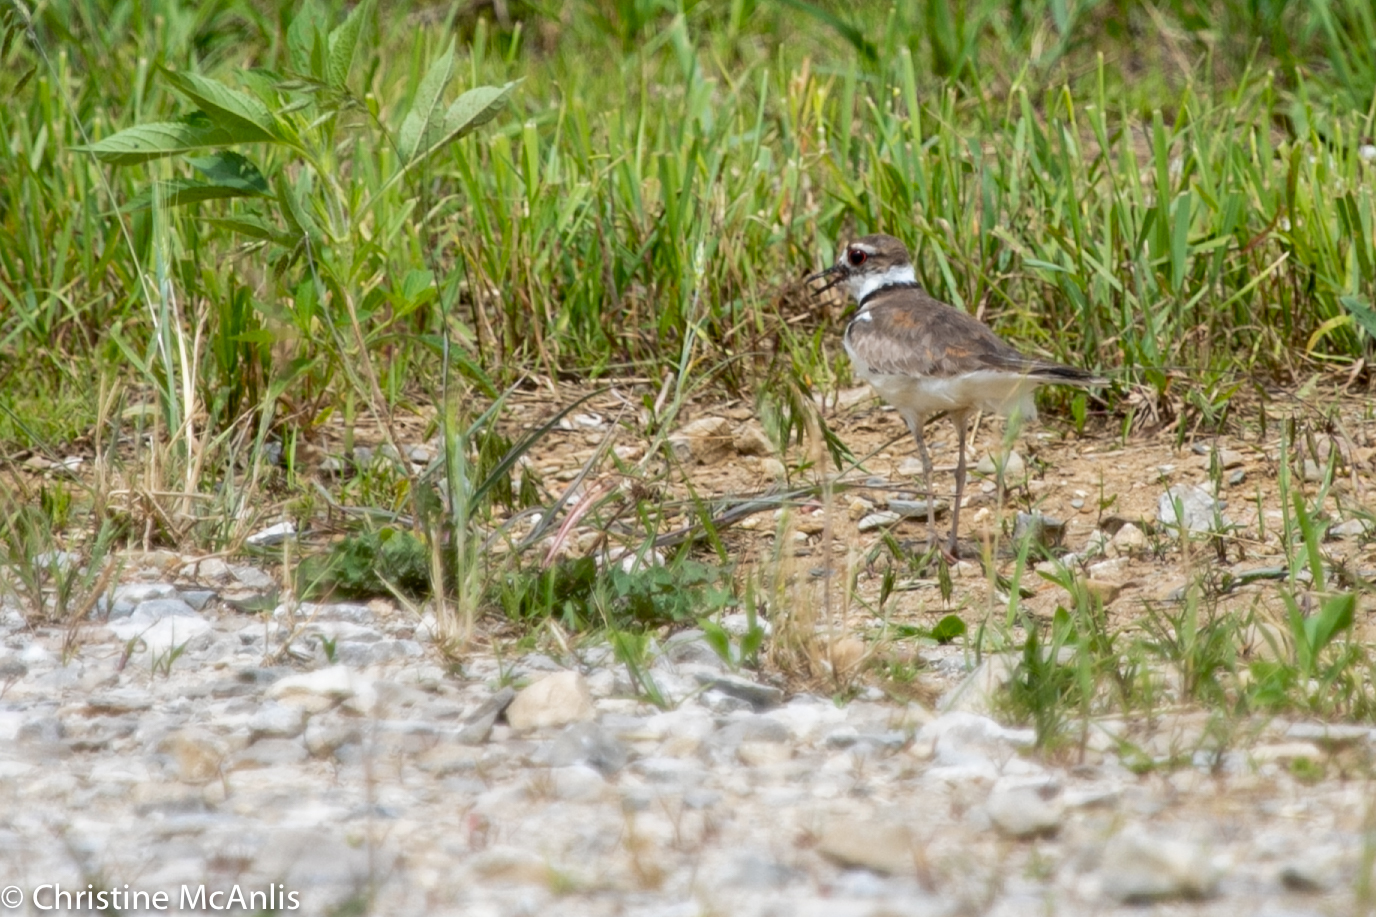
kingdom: Animalia
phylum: Chordata
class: Aves
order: Charadriiformes
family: Charadriidae
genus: Charadrius
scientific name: Charadrius vociferus
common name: Killdeer
